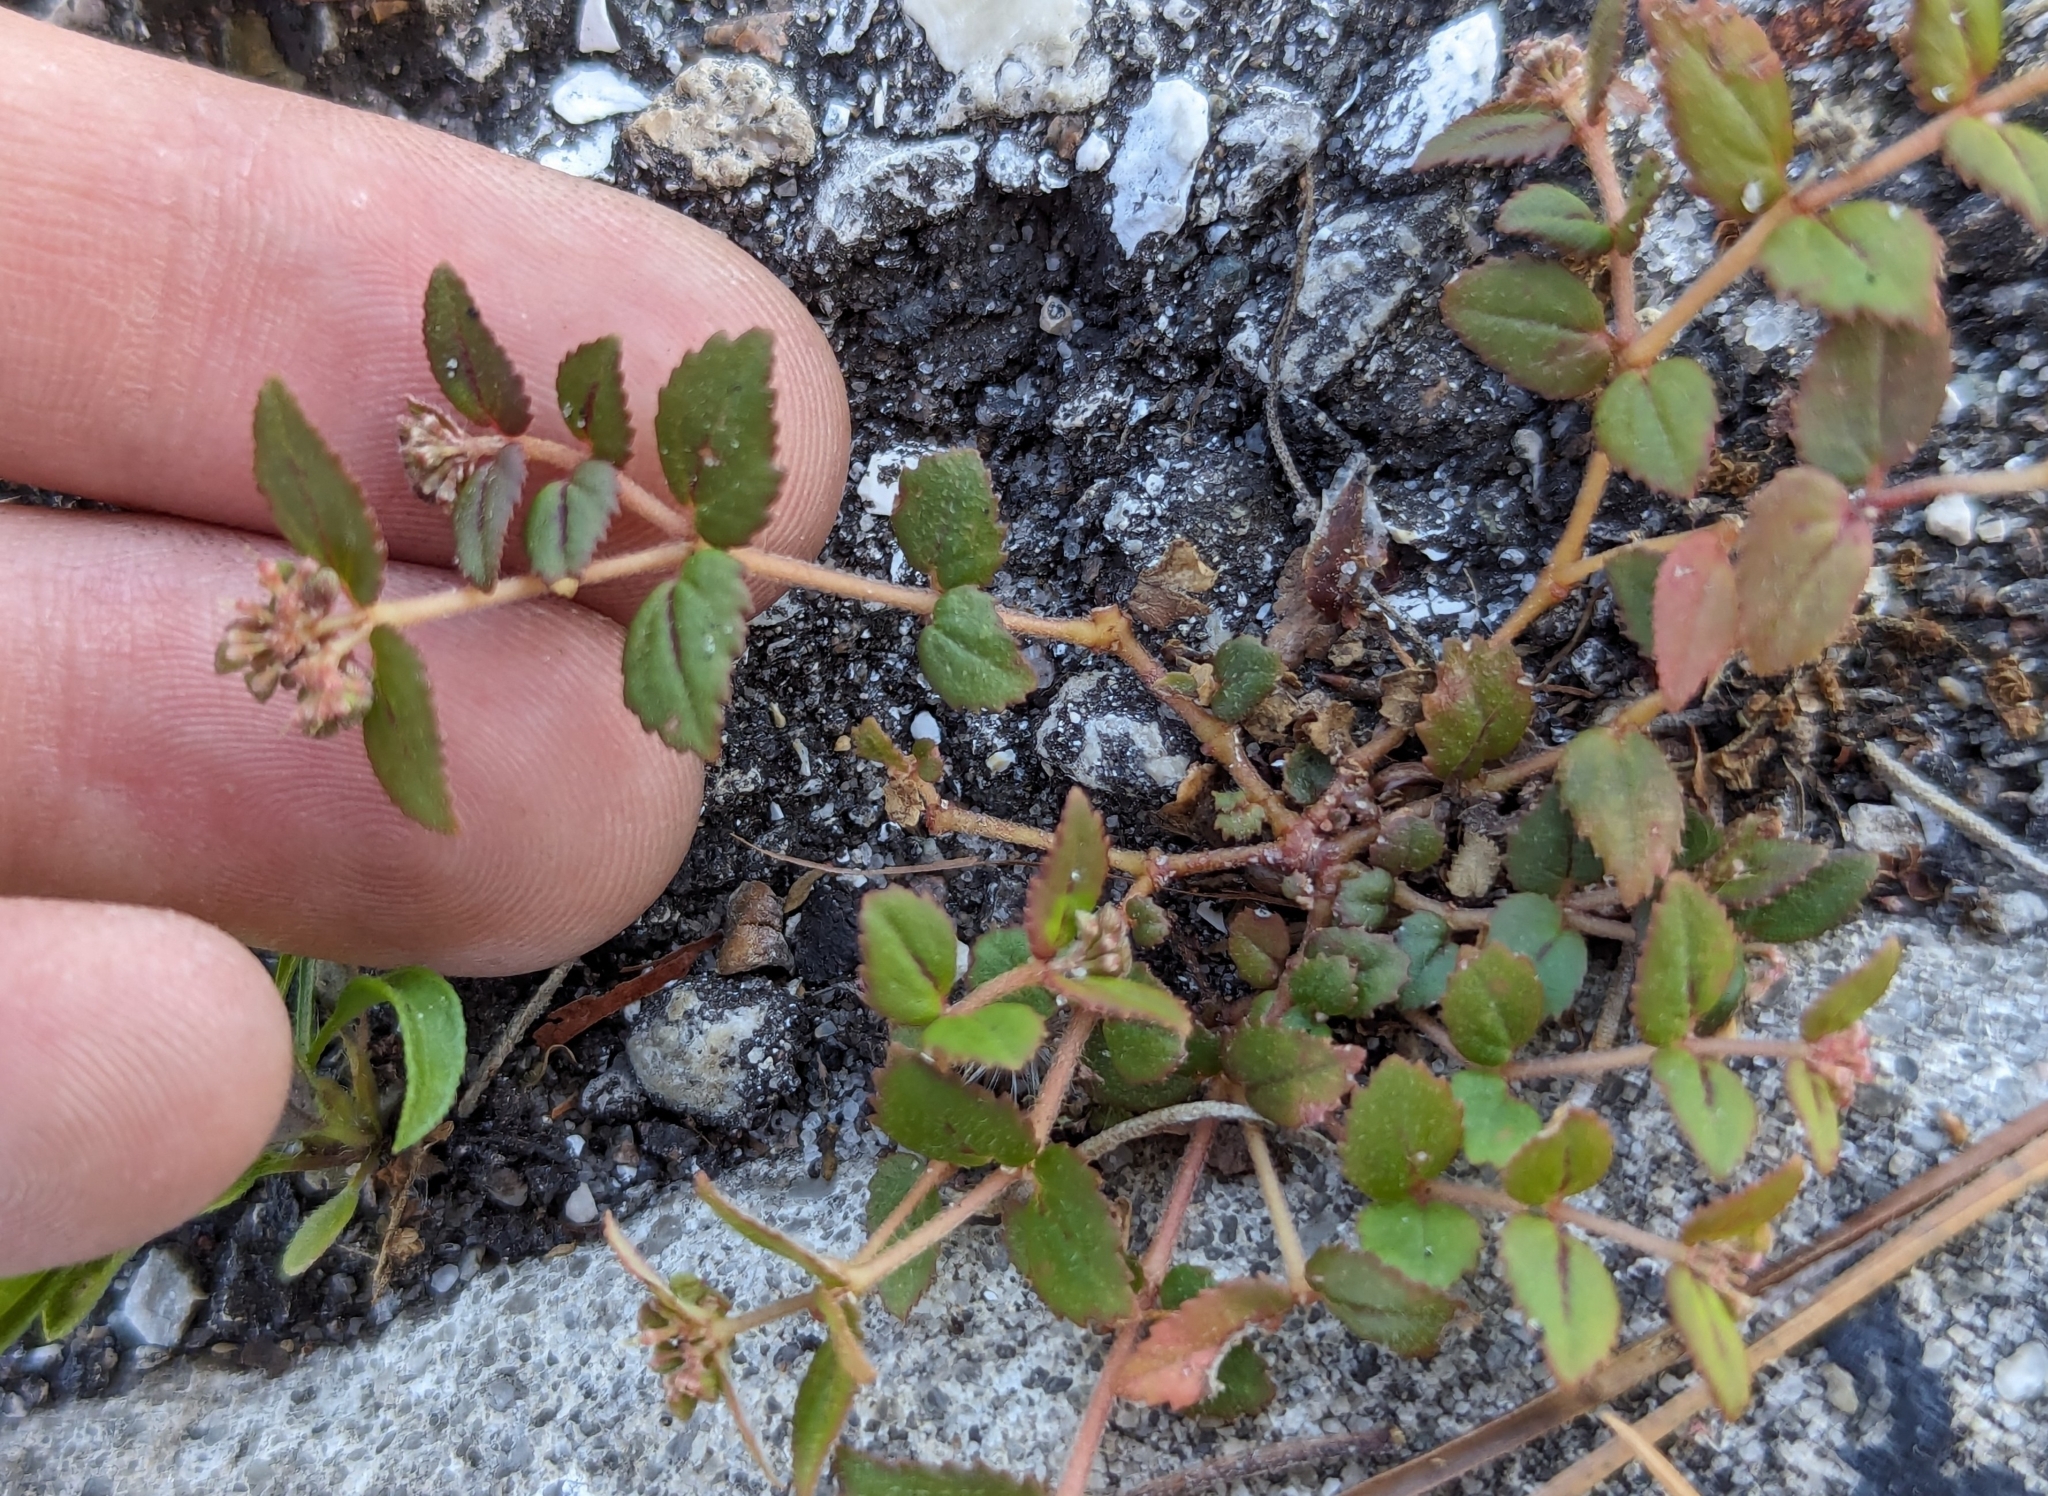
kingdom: Plantae
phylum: Tracheophyta
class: Magnoliopsida
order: Malpighiales
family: Euphorbiaceae
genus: Euphorbia
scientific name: Euphorbia ophthalmica
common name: Florida hammock sandmat
